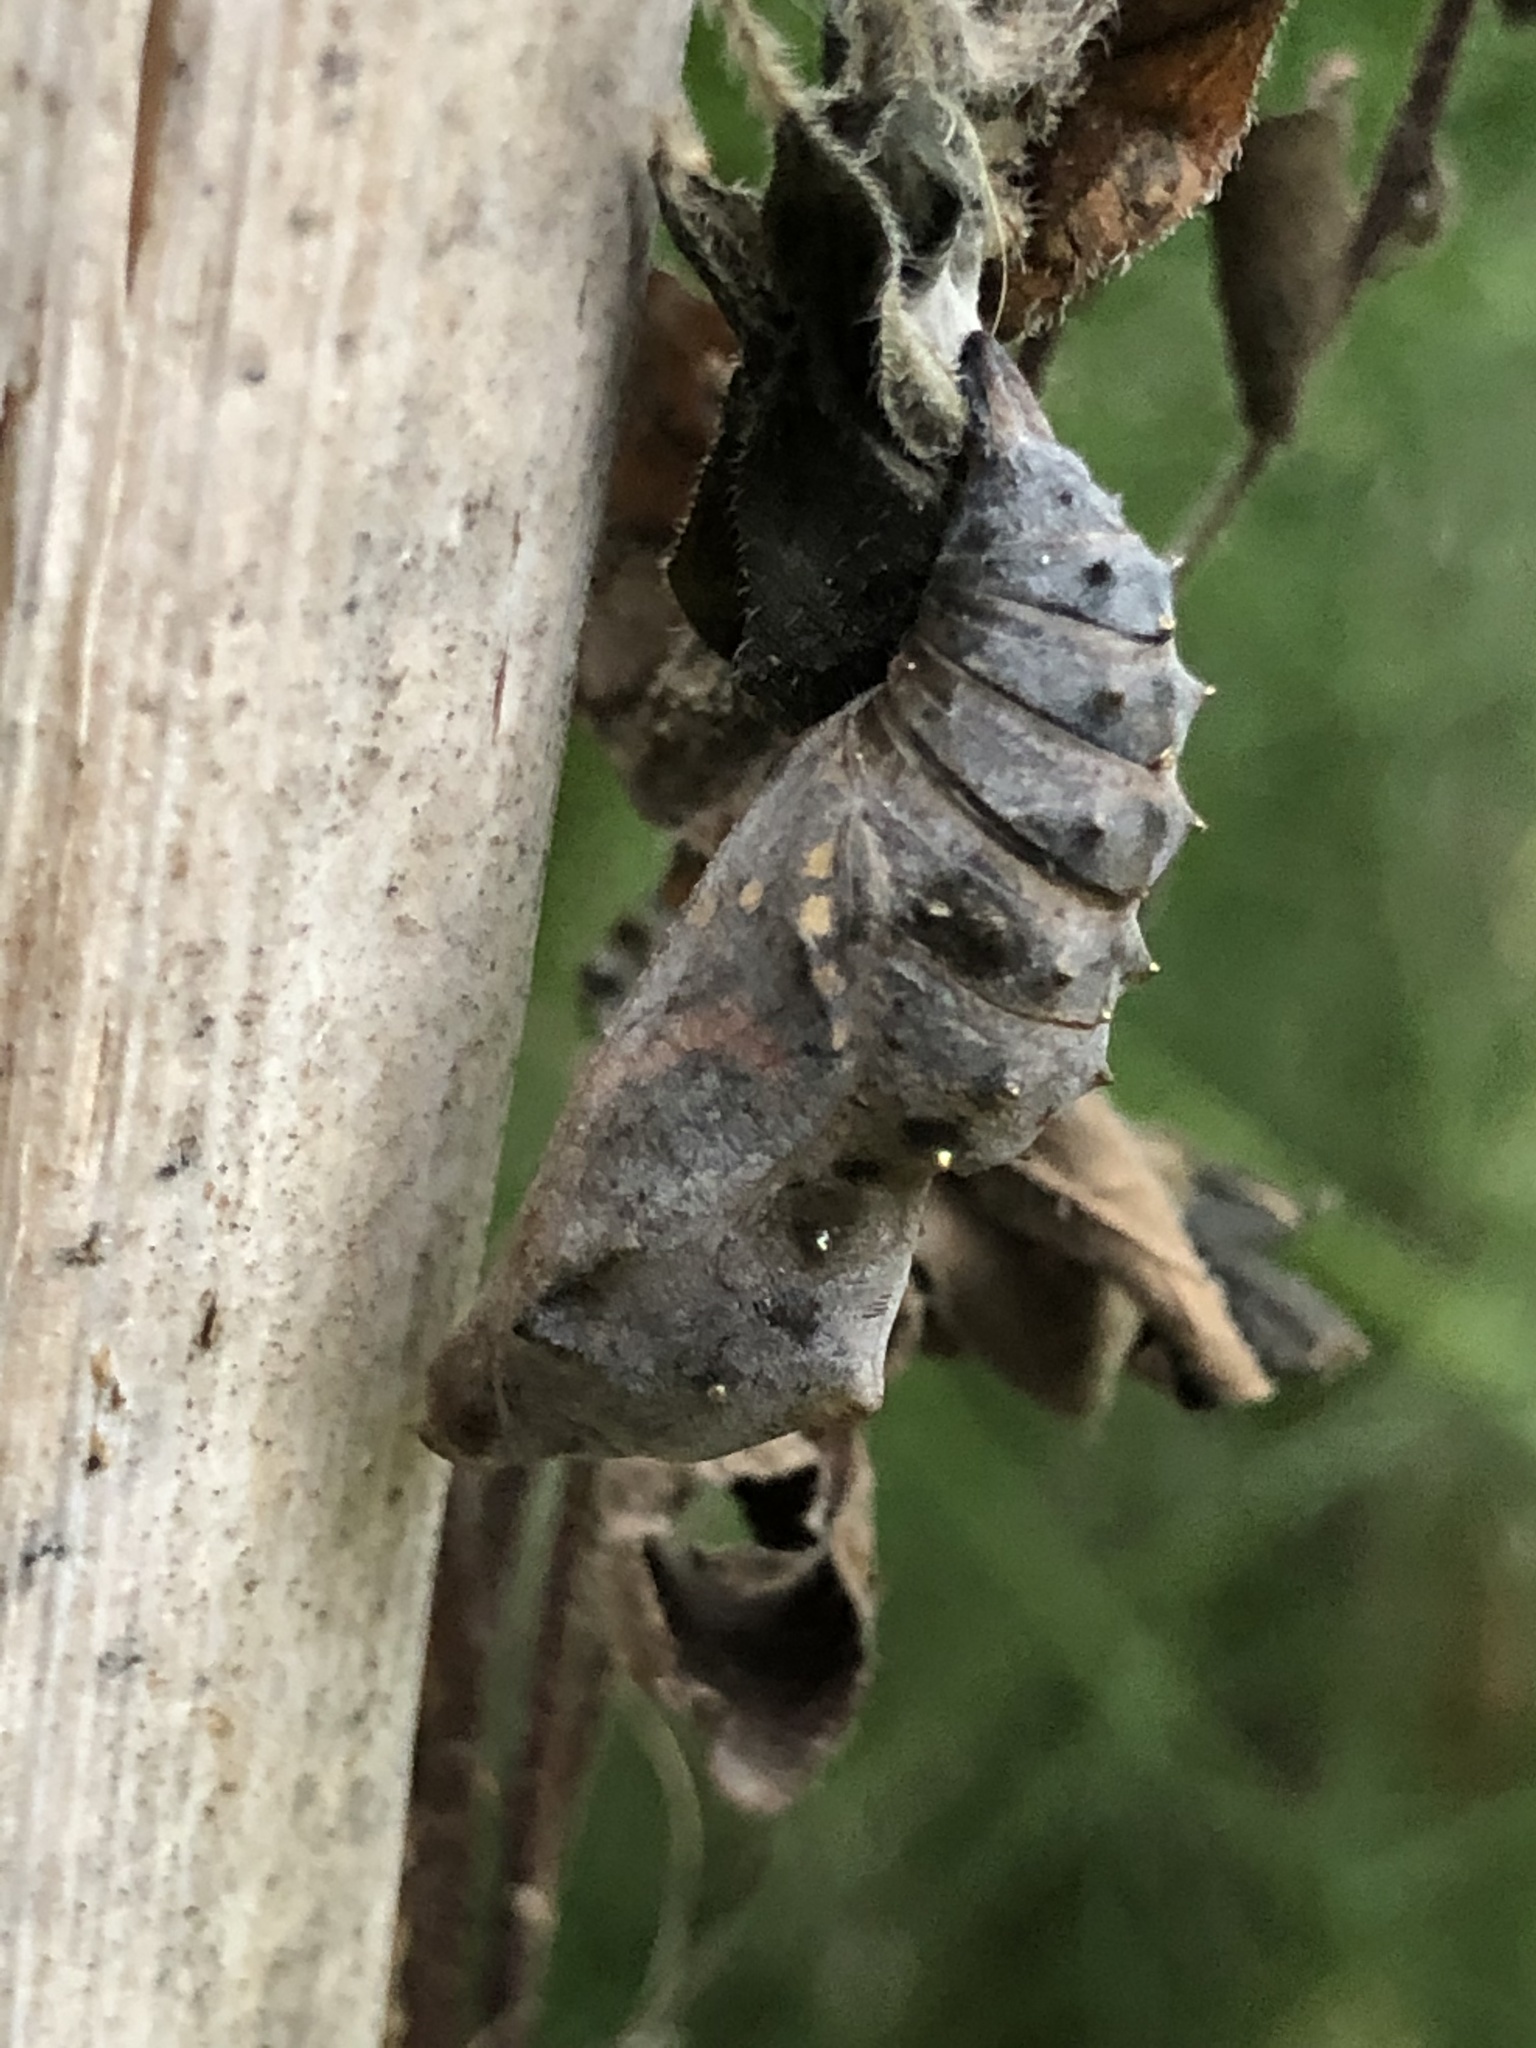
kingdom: Animalia
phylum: Arthropoda
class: Insecta
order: Lepidoptera
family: Nymphalidae
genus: Vanessa
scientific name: Vanessa atalanta
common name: Red admiral
